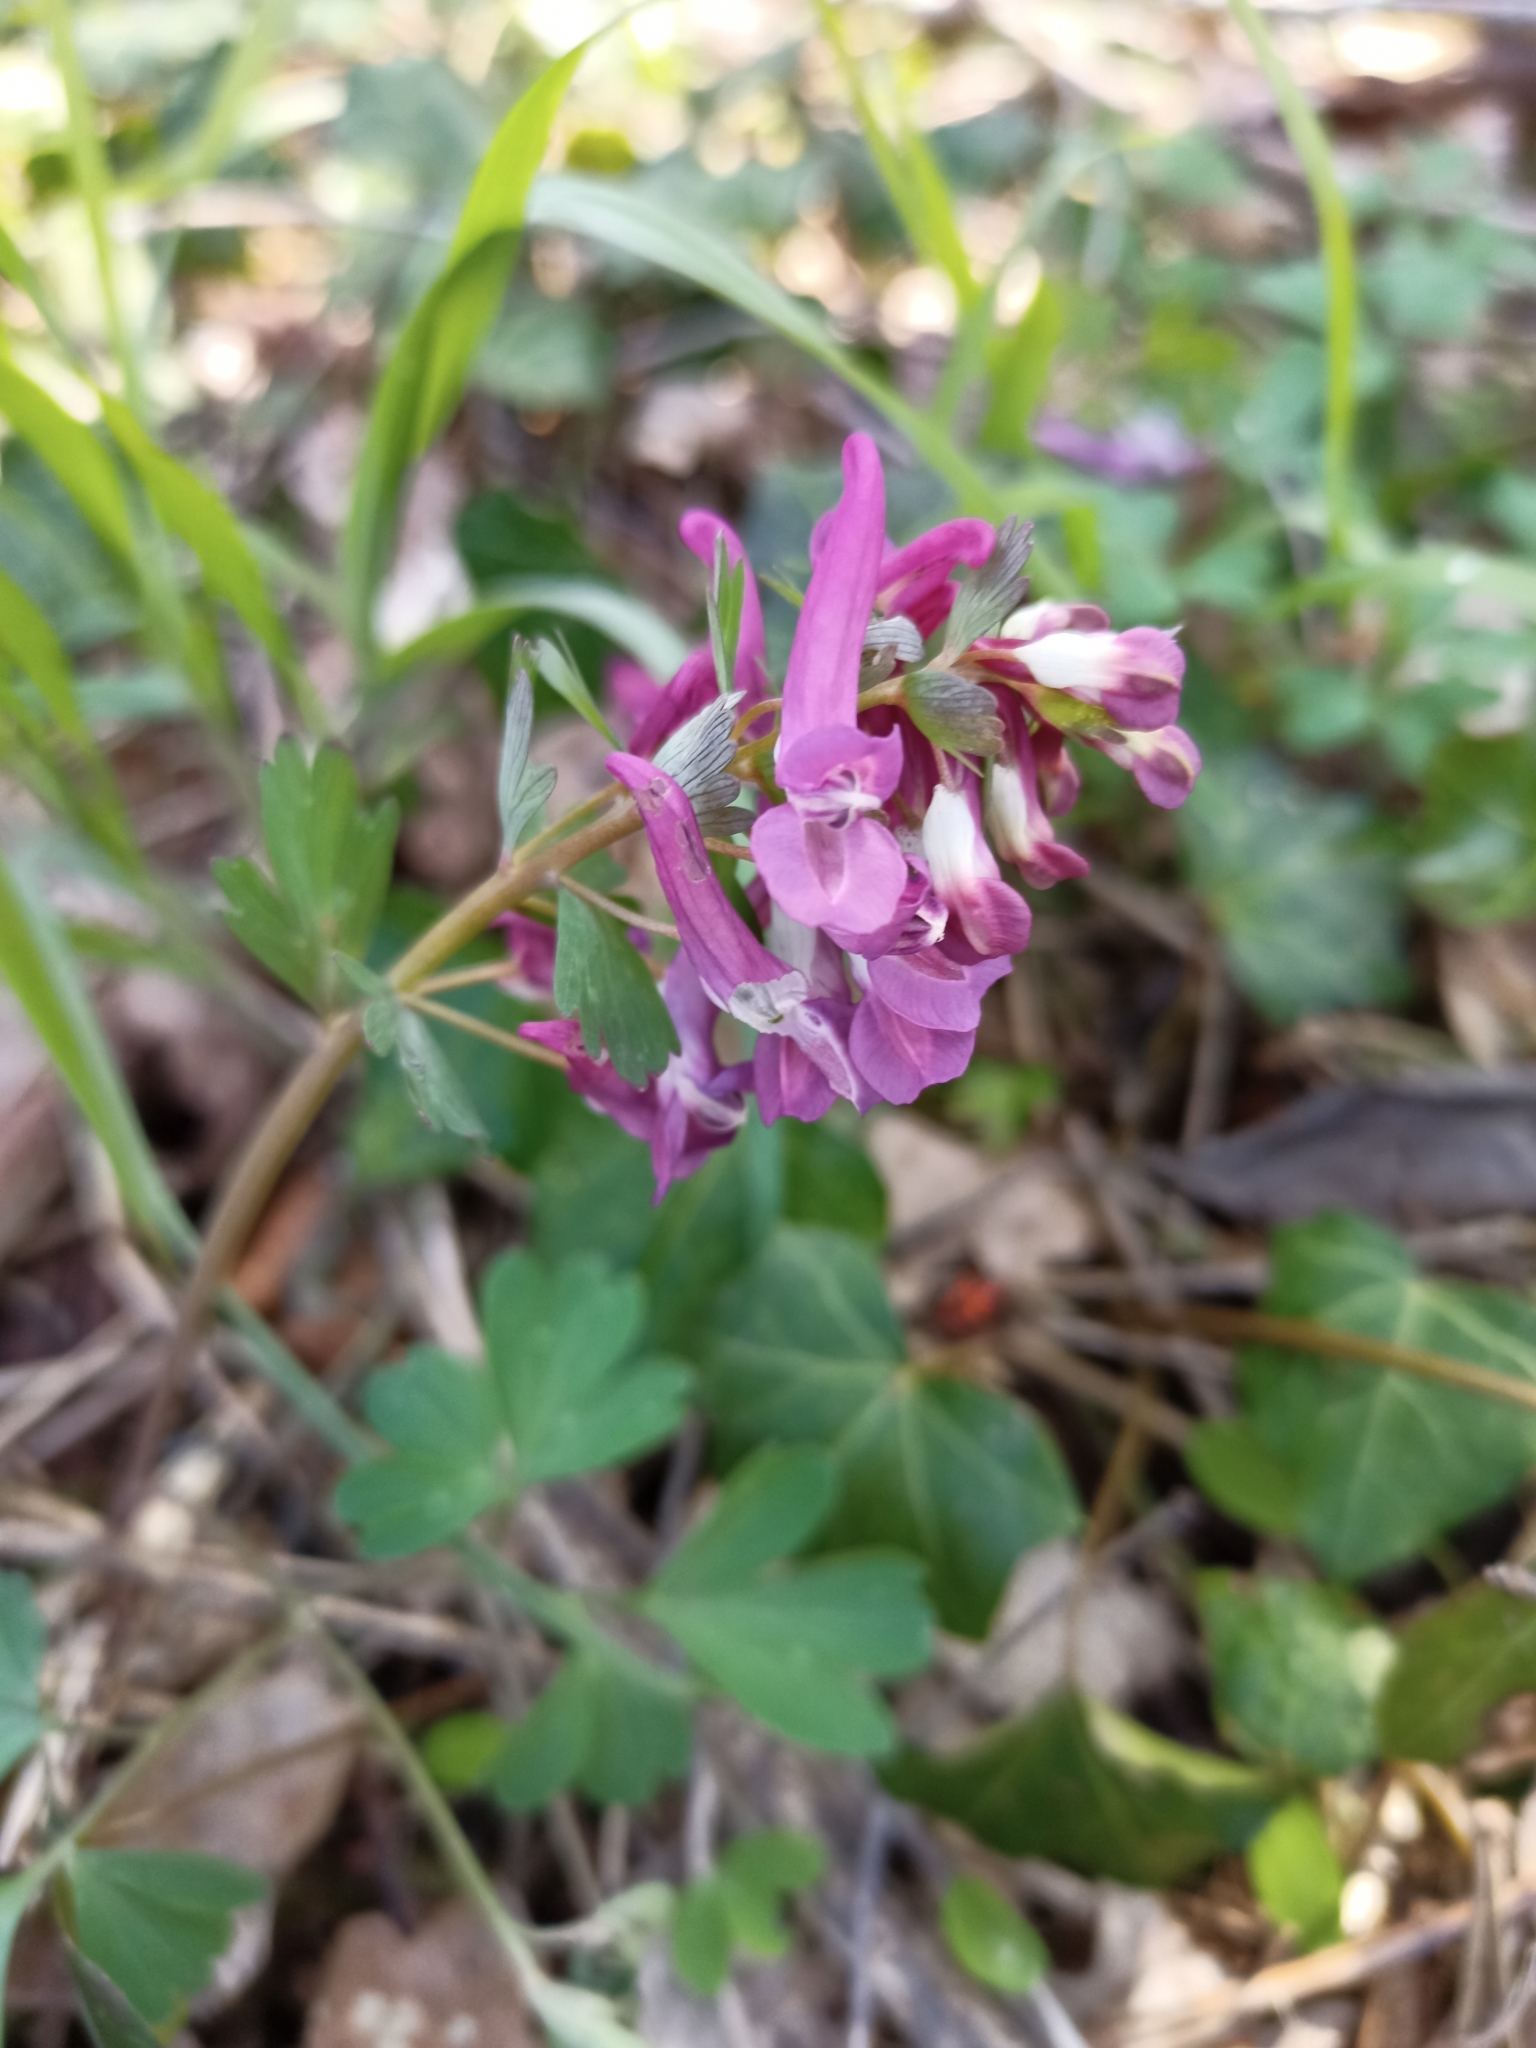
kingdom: Plantae
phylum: Tracheophyta
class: Magnoliopsida
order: Ranunculales
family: Papaveraceae
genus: Corydalis
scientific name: Corydalis solida
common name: Bird-in-a-bush
